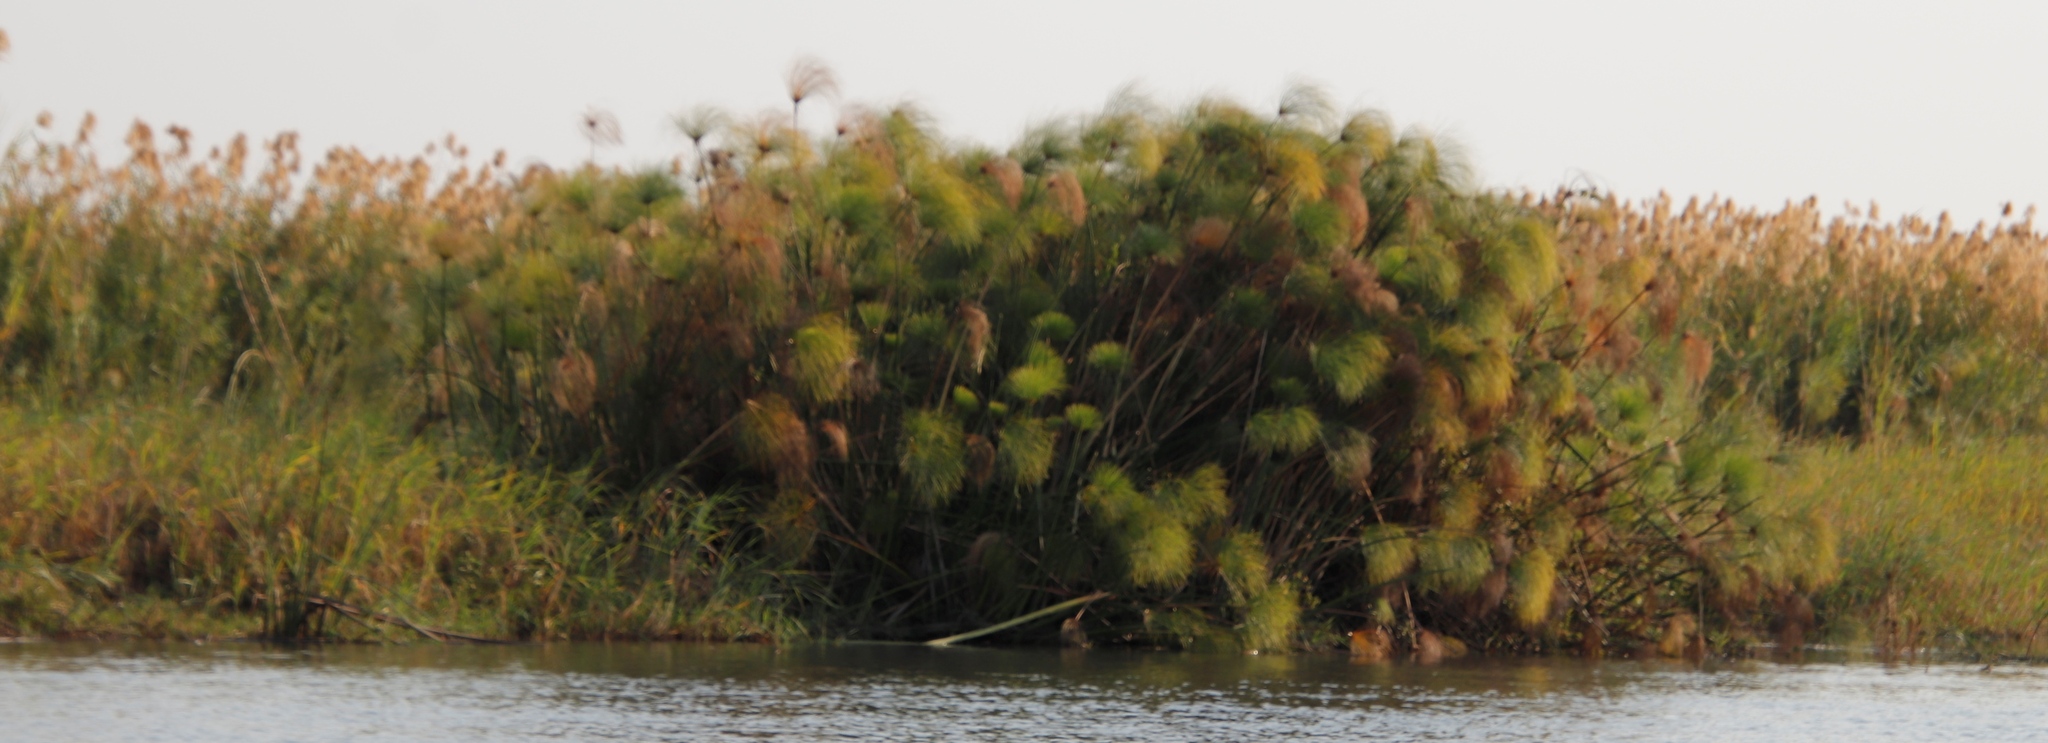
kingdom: Plantae
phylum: Tracheophyta
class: Liliopsida
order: Poales
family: Cyperaceae
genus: Cyperus
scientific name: Cyperus papyrus
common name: Papyrus
